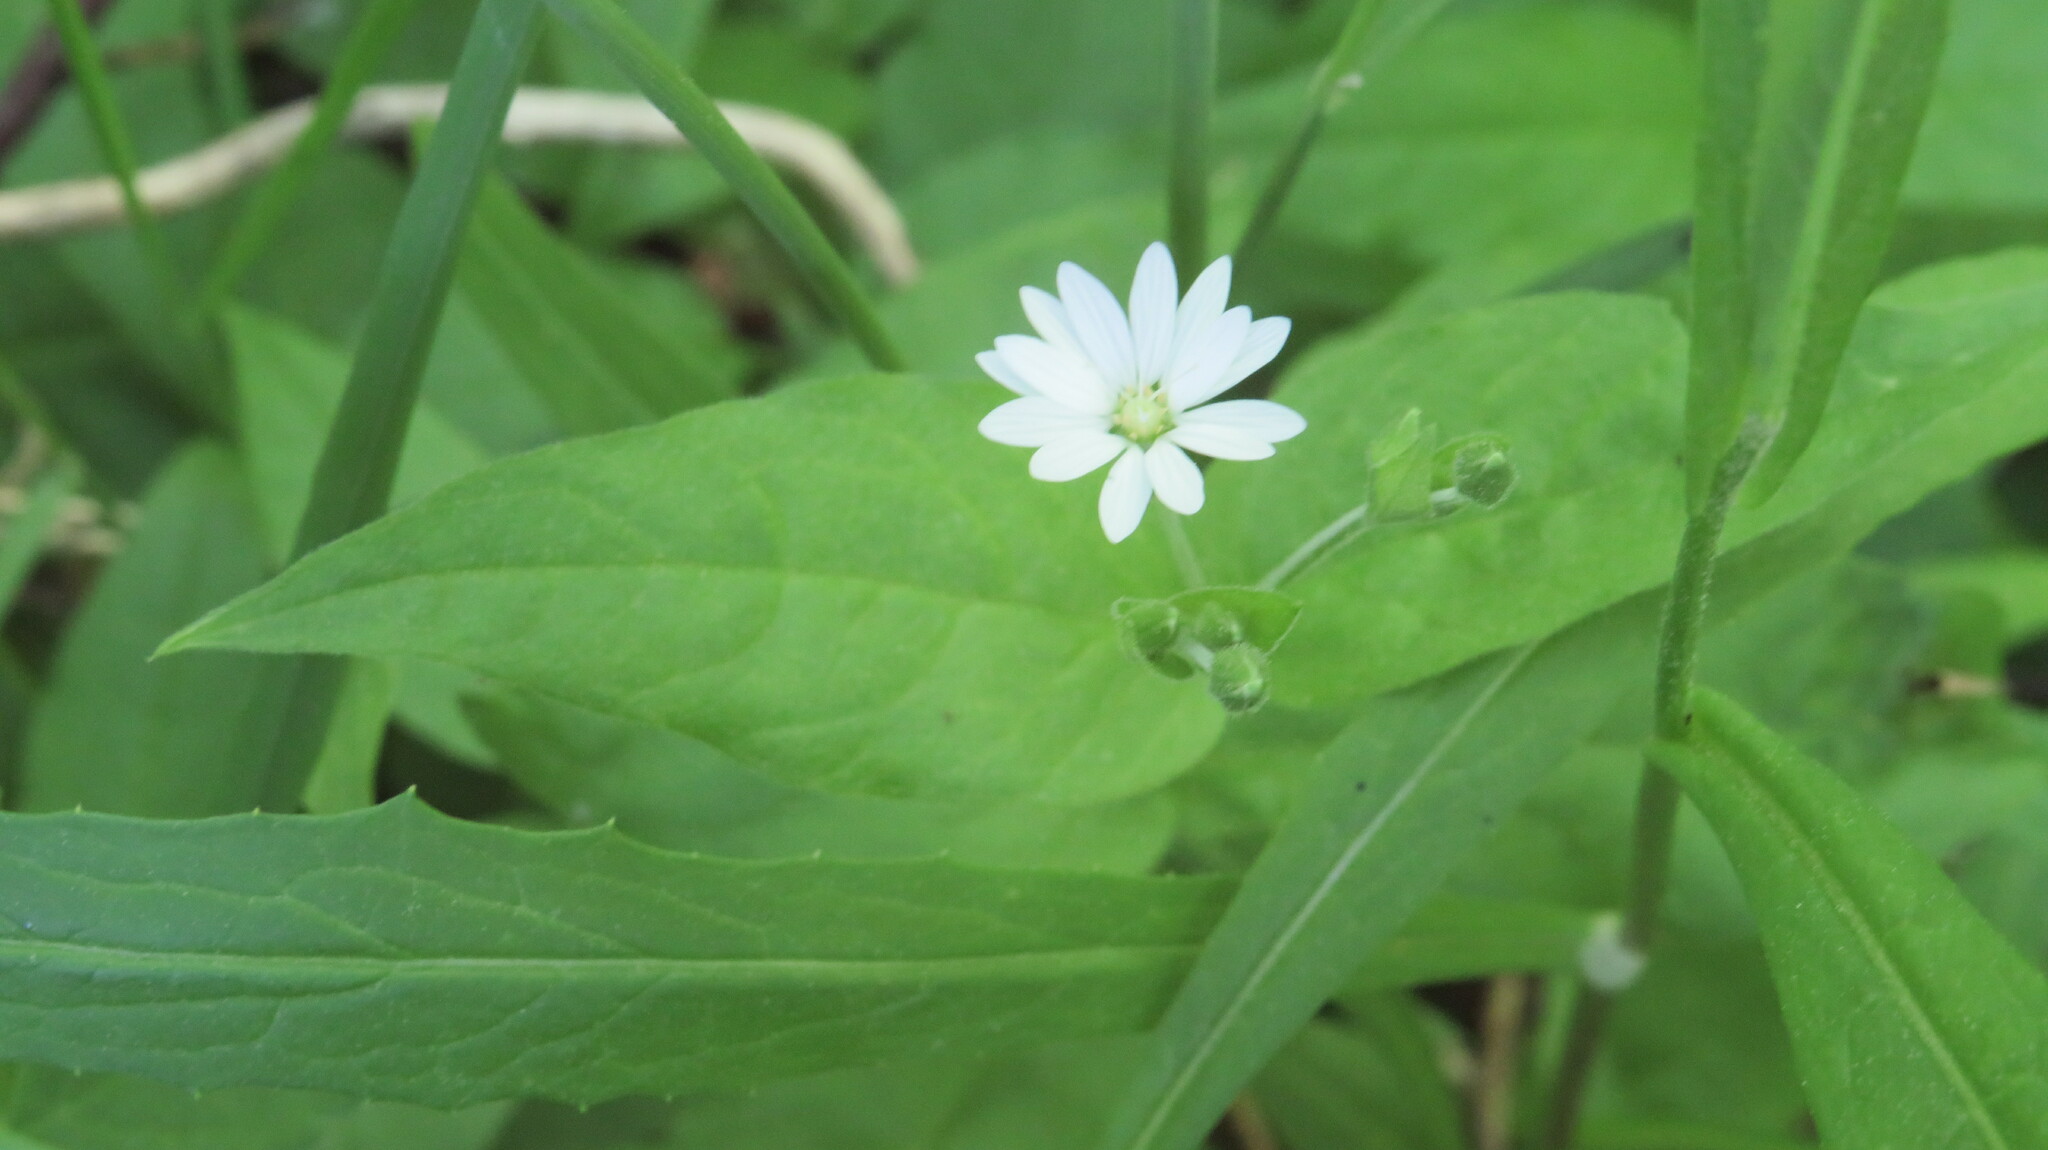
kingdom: Plantae
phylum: Tracheophyta
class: Magnoliopsida
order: Caryophyllales
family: Caryophyllaceae
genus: Stellaria
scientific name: Stellaria bungeana
